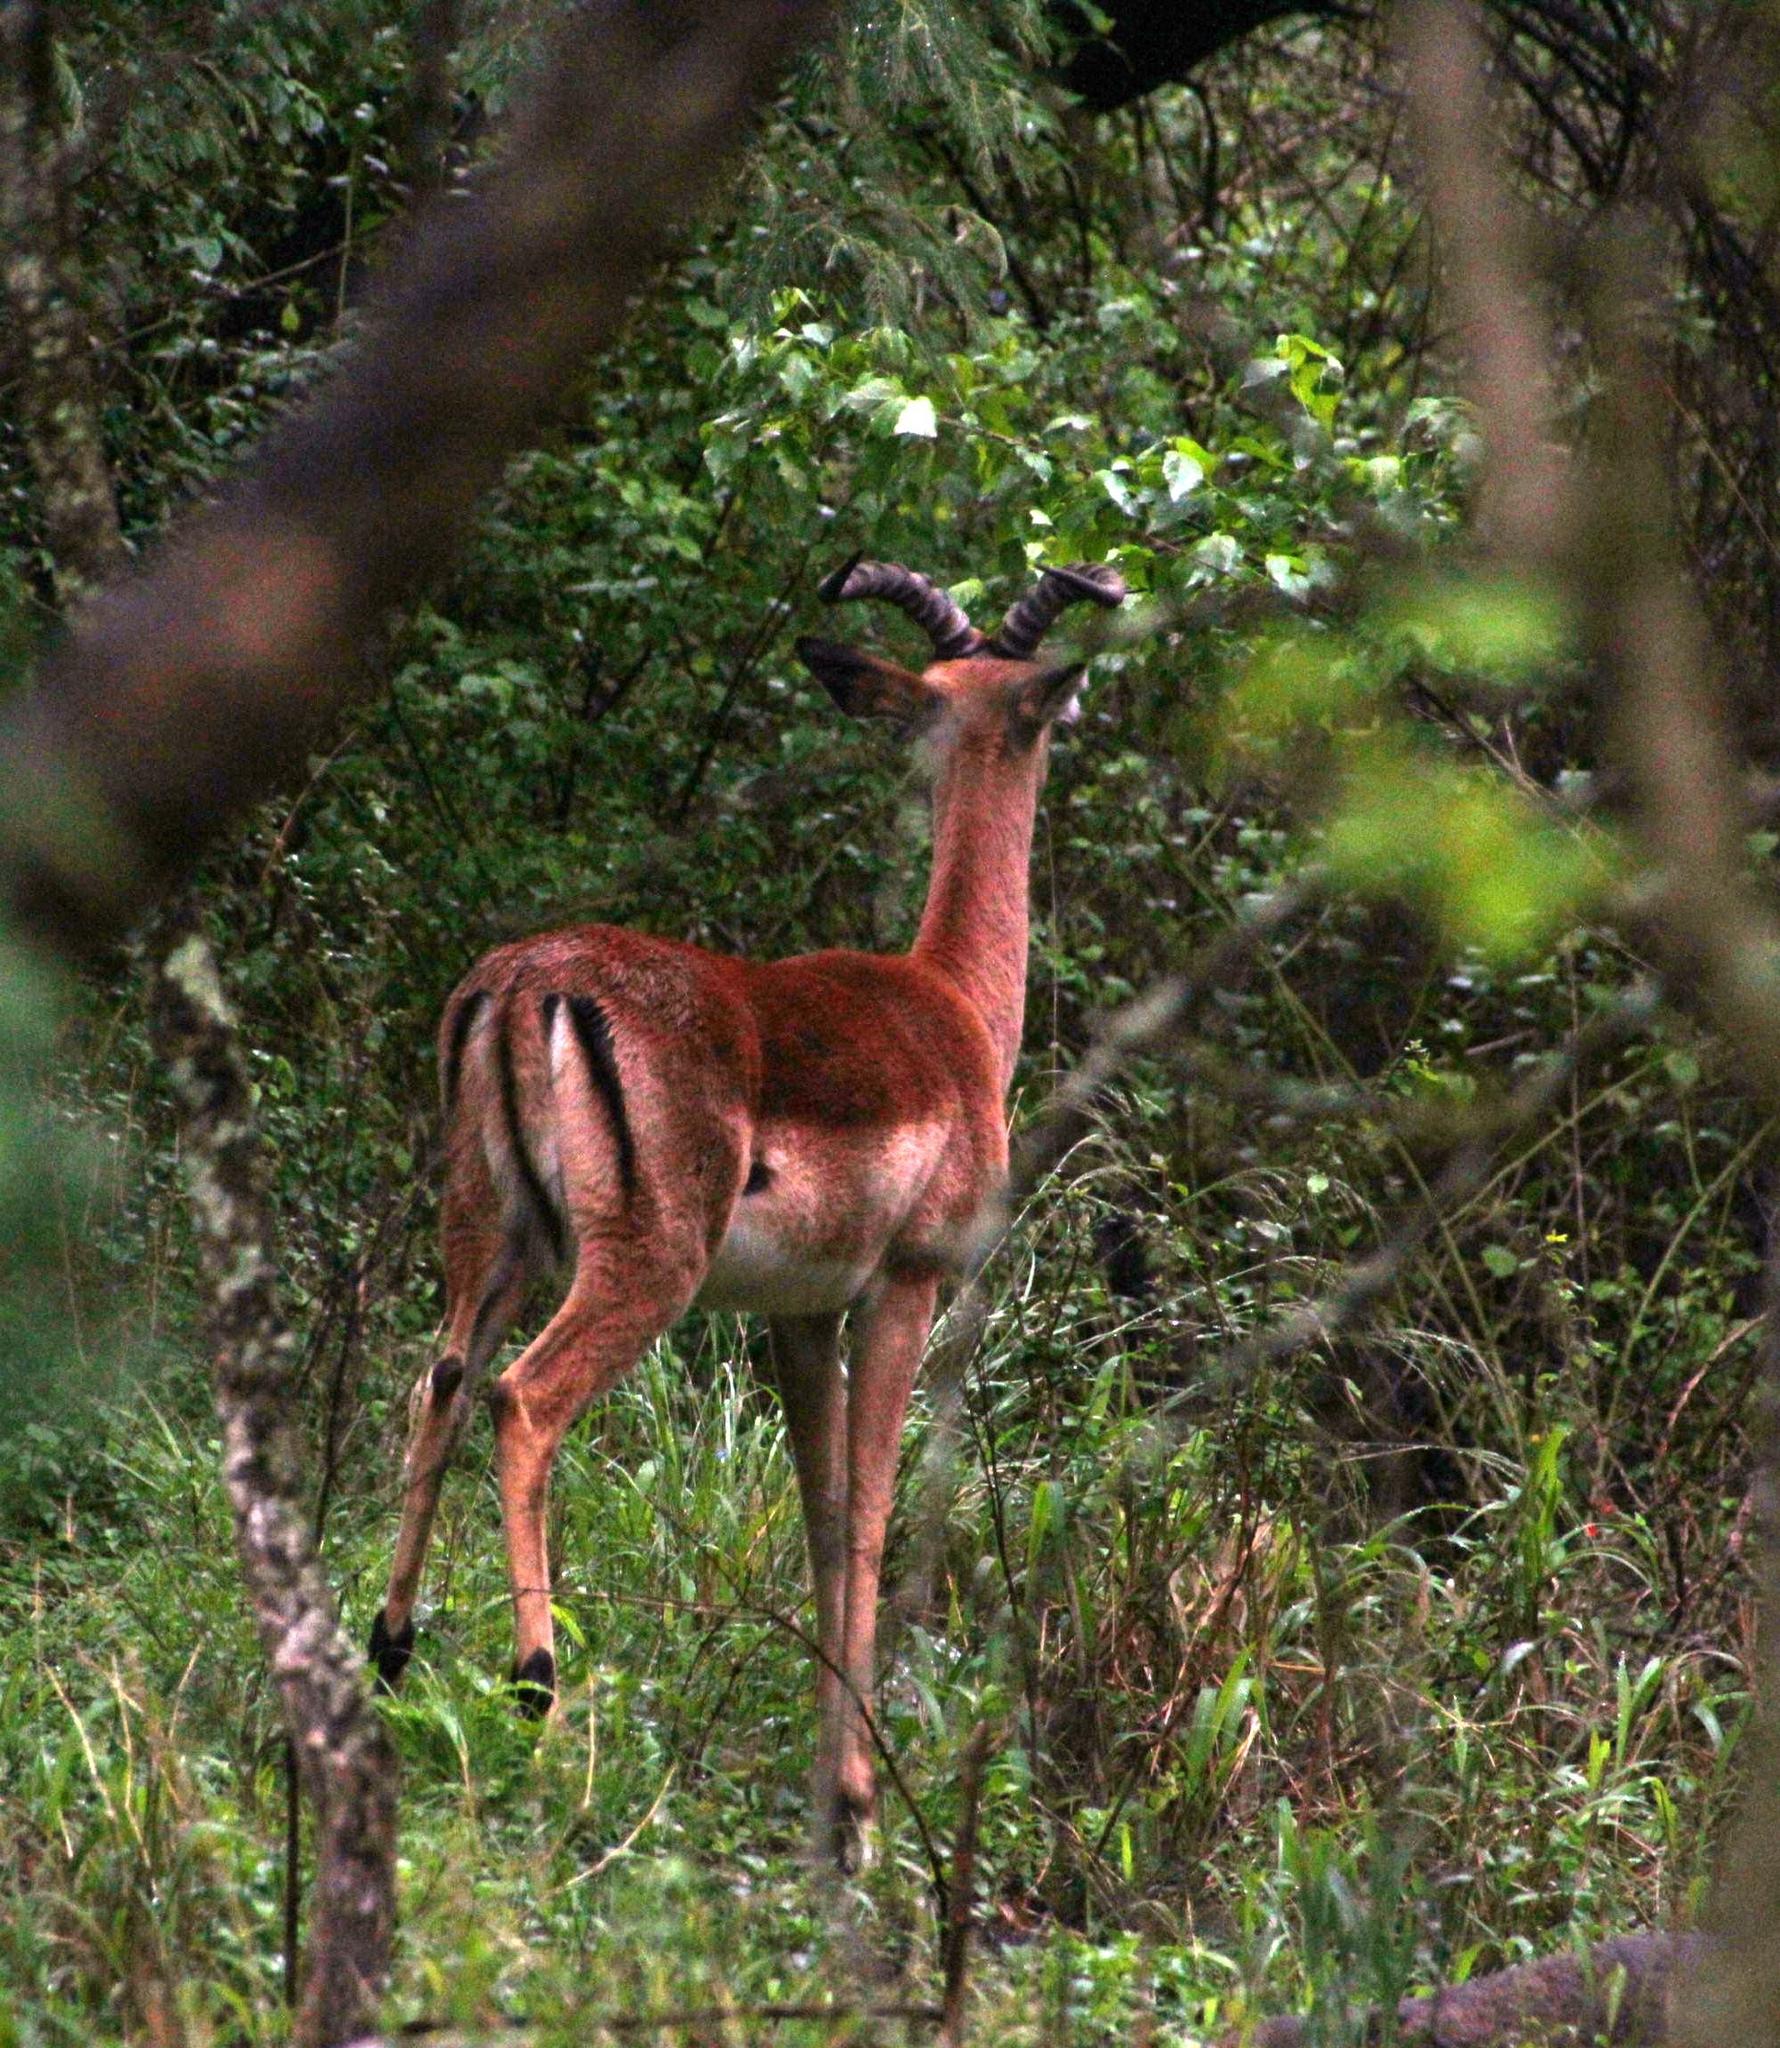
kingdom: Animalia
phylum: Chordata
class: Mammalia
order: Artiodactyla
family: Bovidae
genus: Aepyceros
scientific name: Aepyceros melampus
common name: Impala
